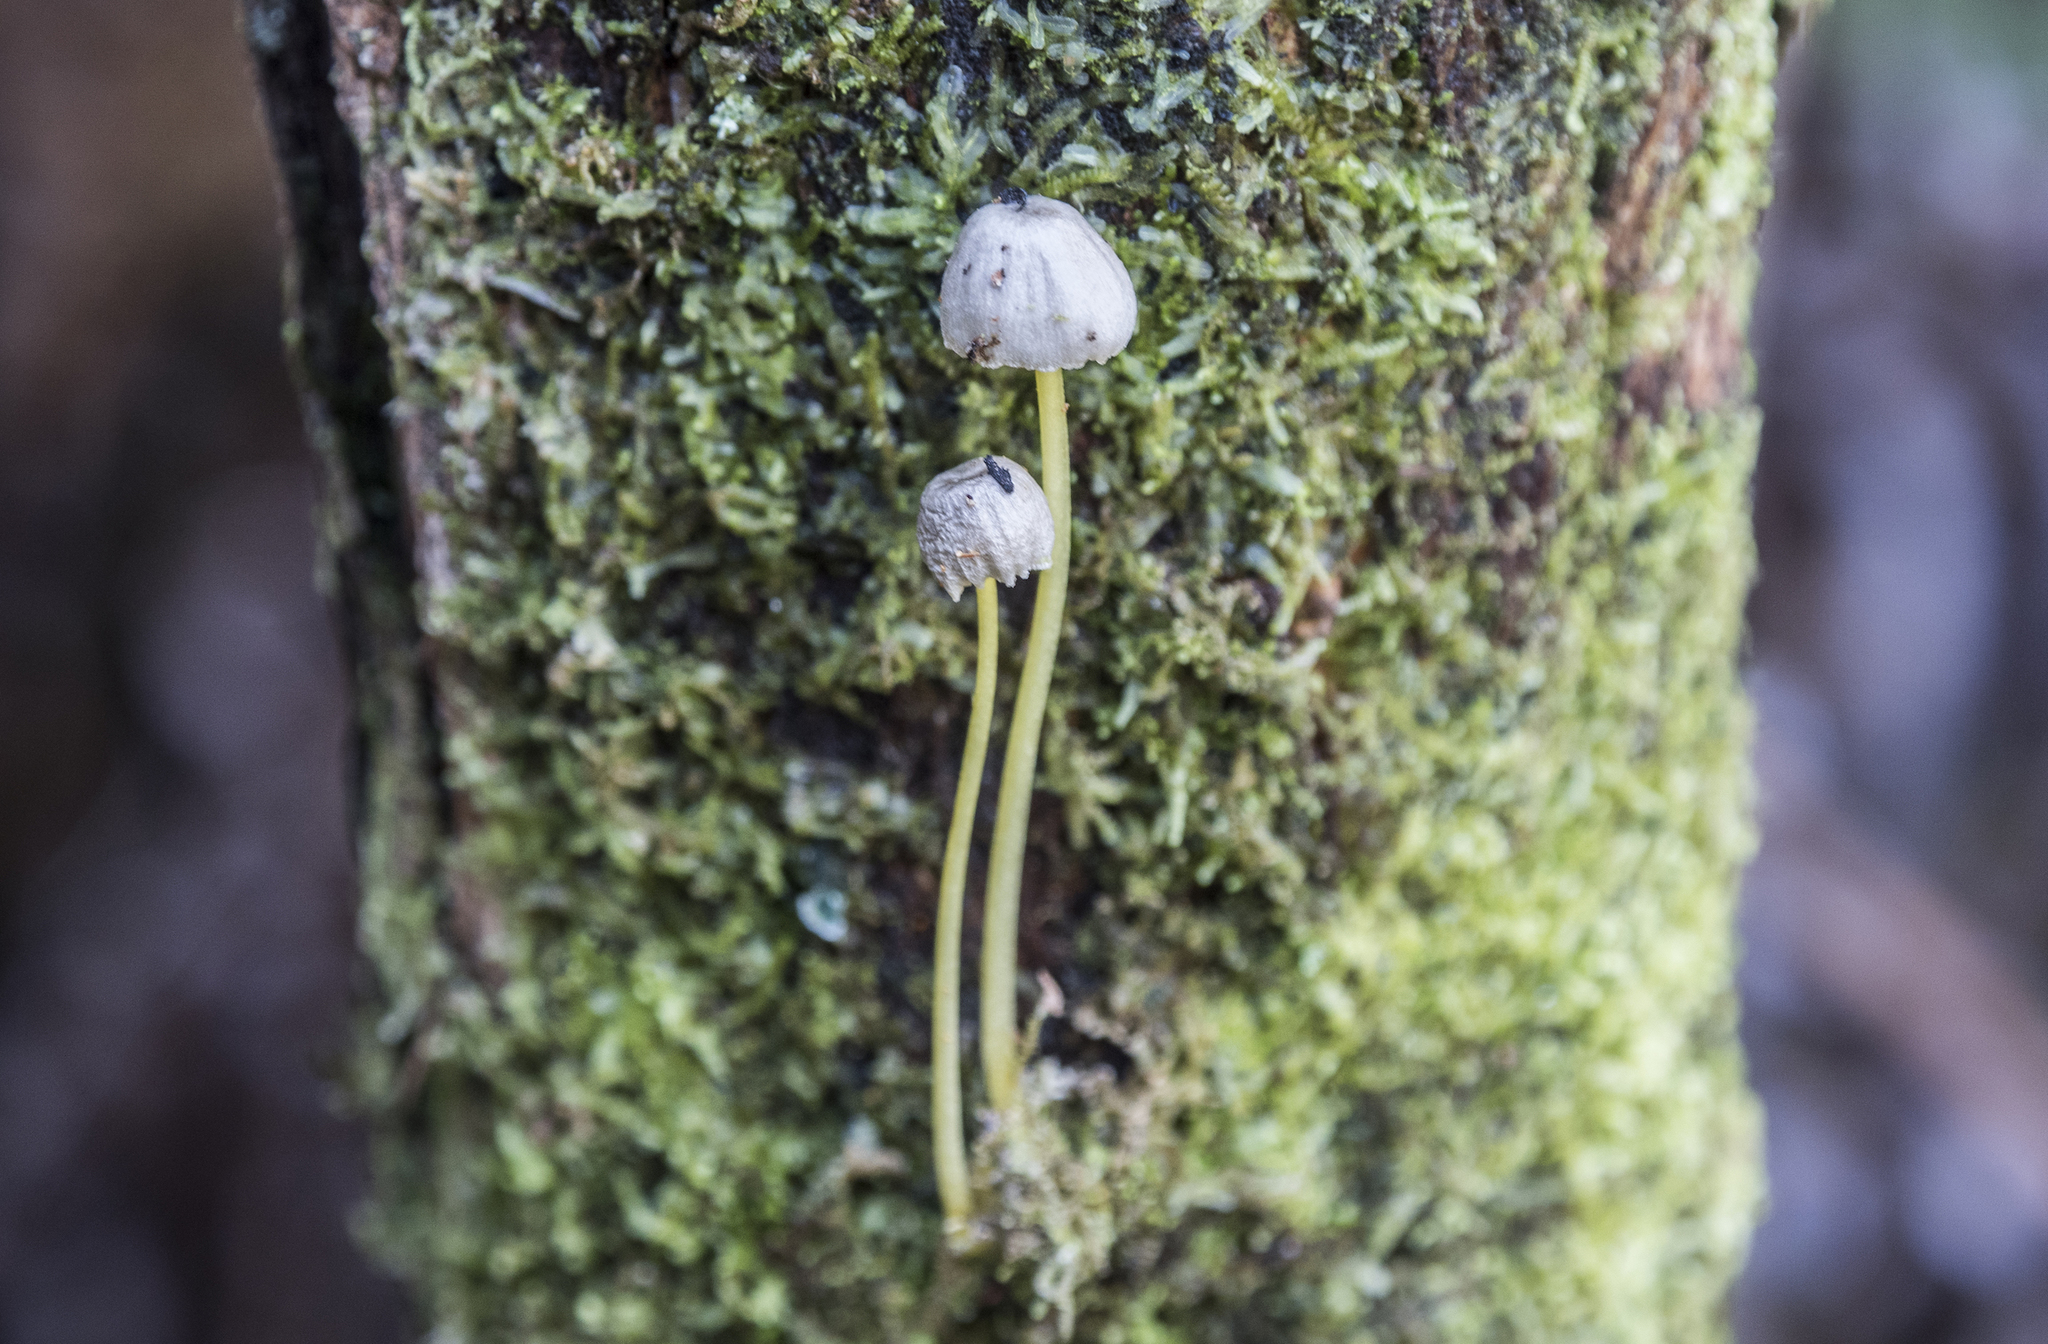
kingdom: Fungi
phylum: Basidiomycota
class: Agaricomycetes
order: Agaricales
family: Mycenaceae
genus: Mycena
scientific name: Mycena subviscosa
